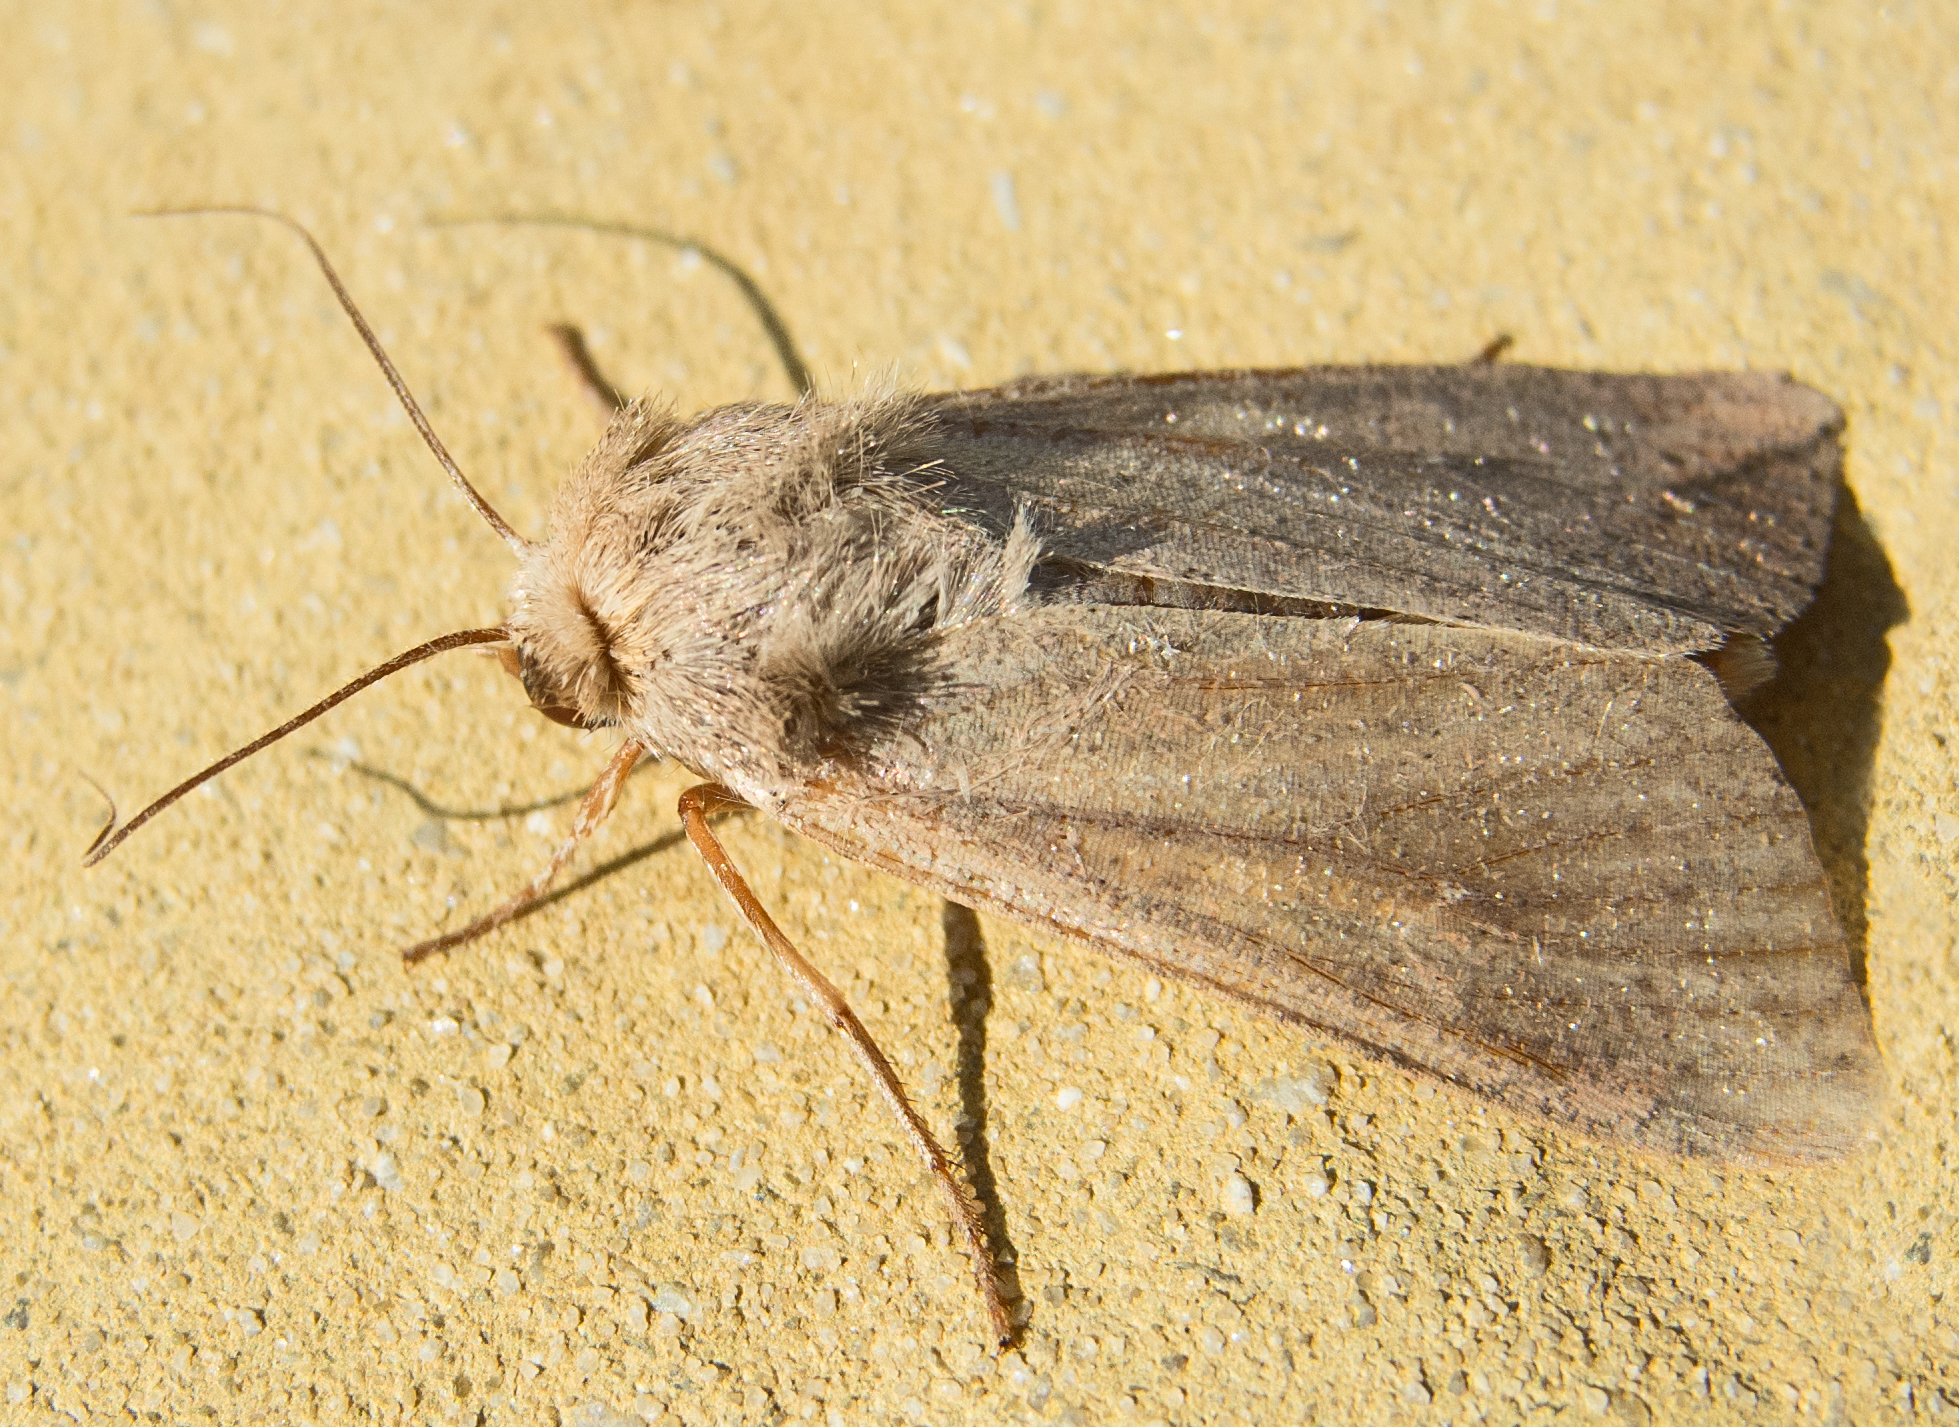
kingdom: Animalia
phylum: Arthropoda
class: Insecta
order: Lepidoptera
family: Noctuidae
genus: Mythimna
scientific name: Mythimna unipuncta
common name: White-speck
